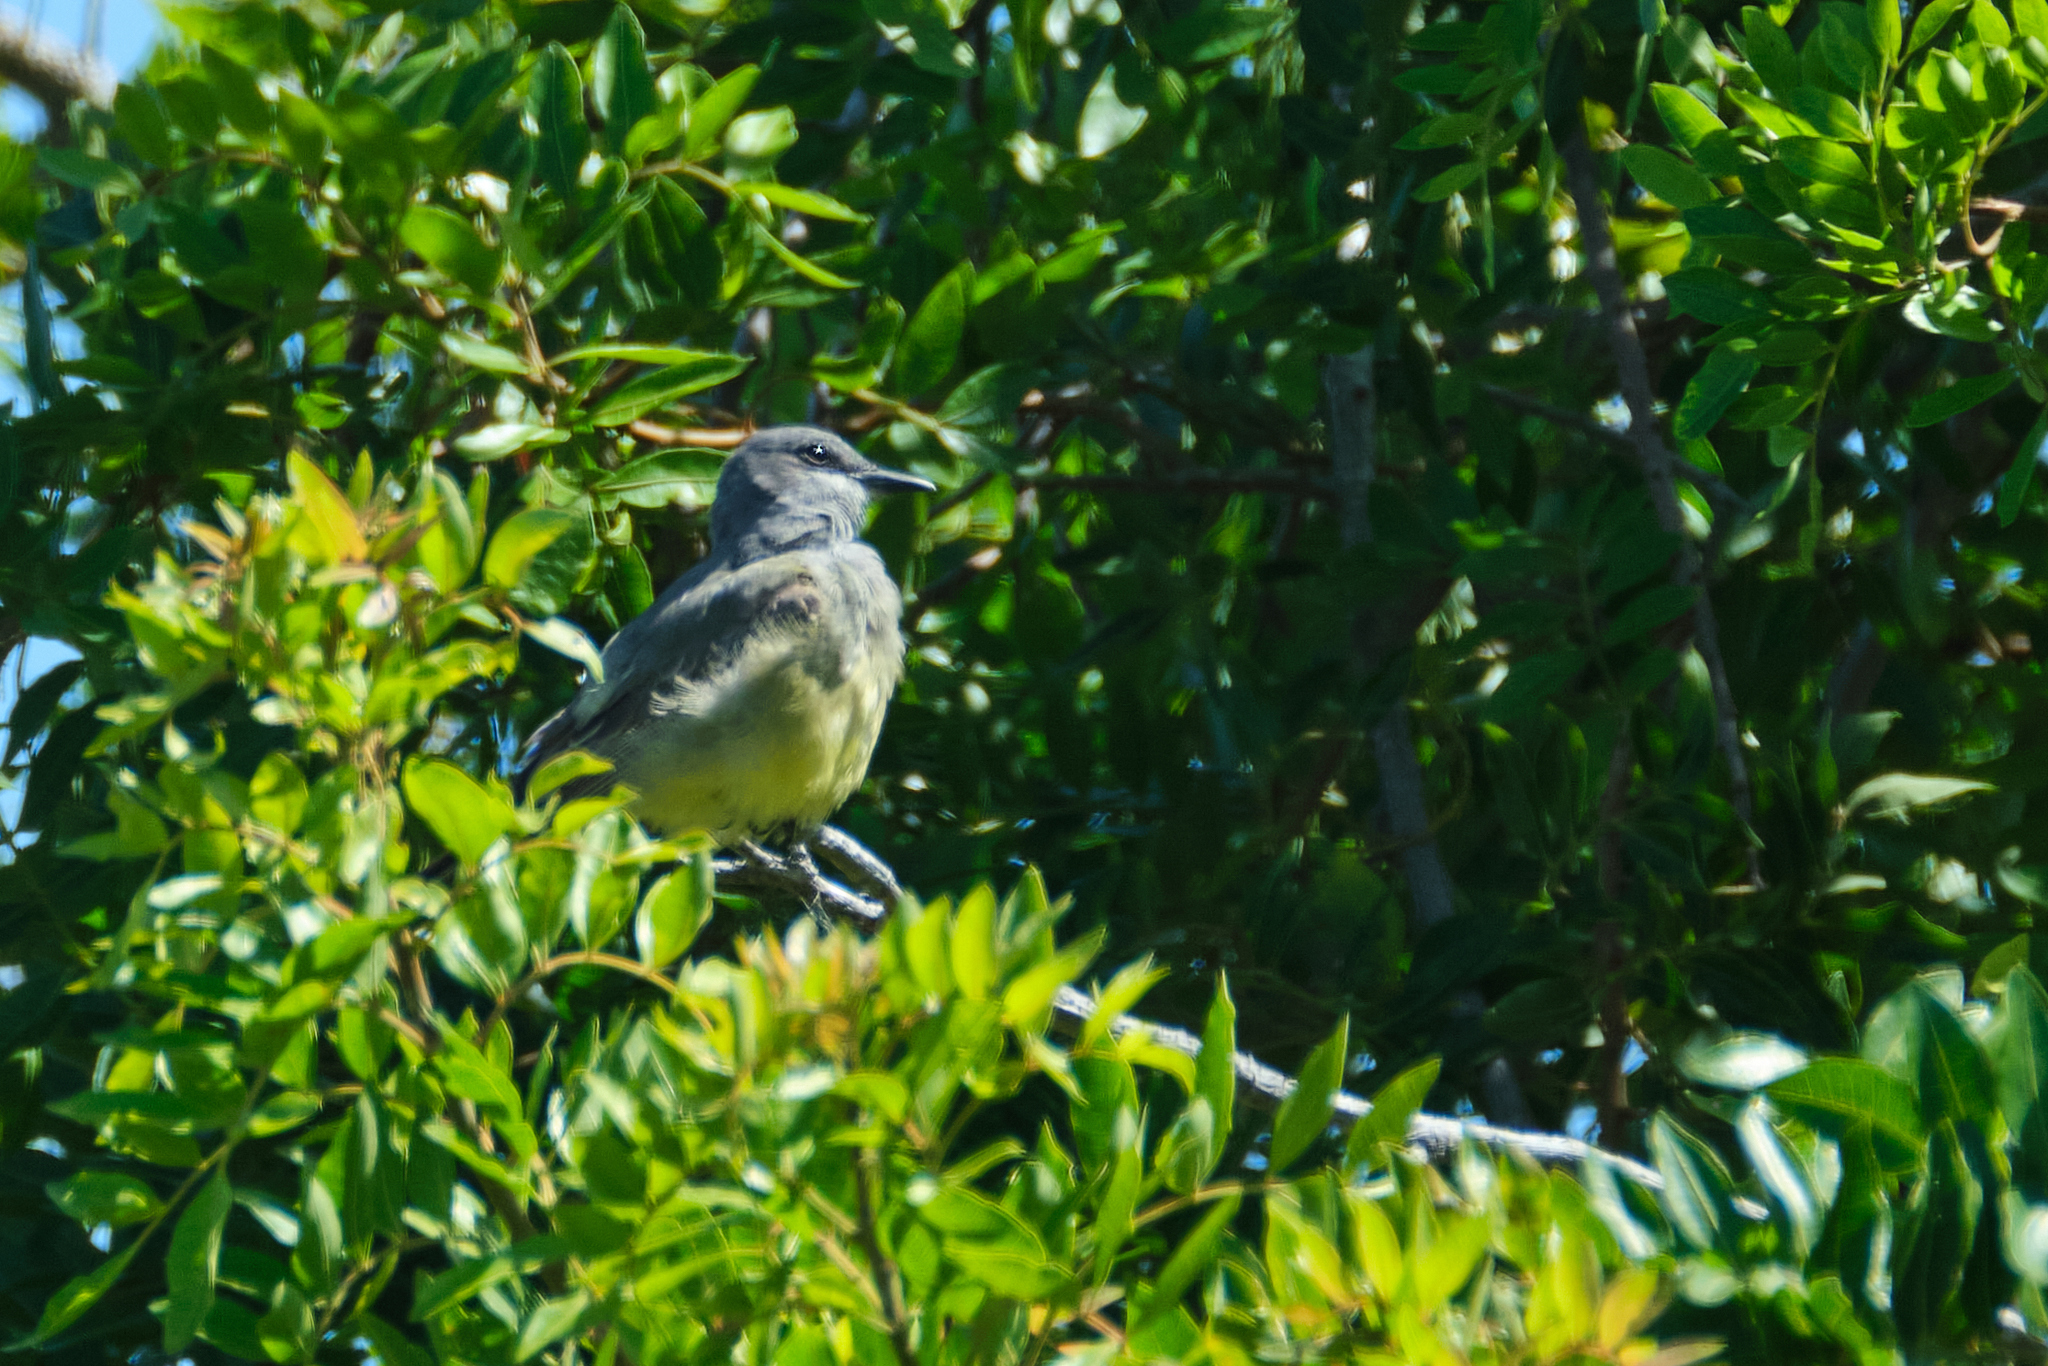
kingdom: Animalia
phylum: Chordata
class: Aves
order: Passeriformes
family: Tyrannidae
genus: Tyrannus
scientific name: Tyrannus vociferans
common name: Cassin's kingbird
